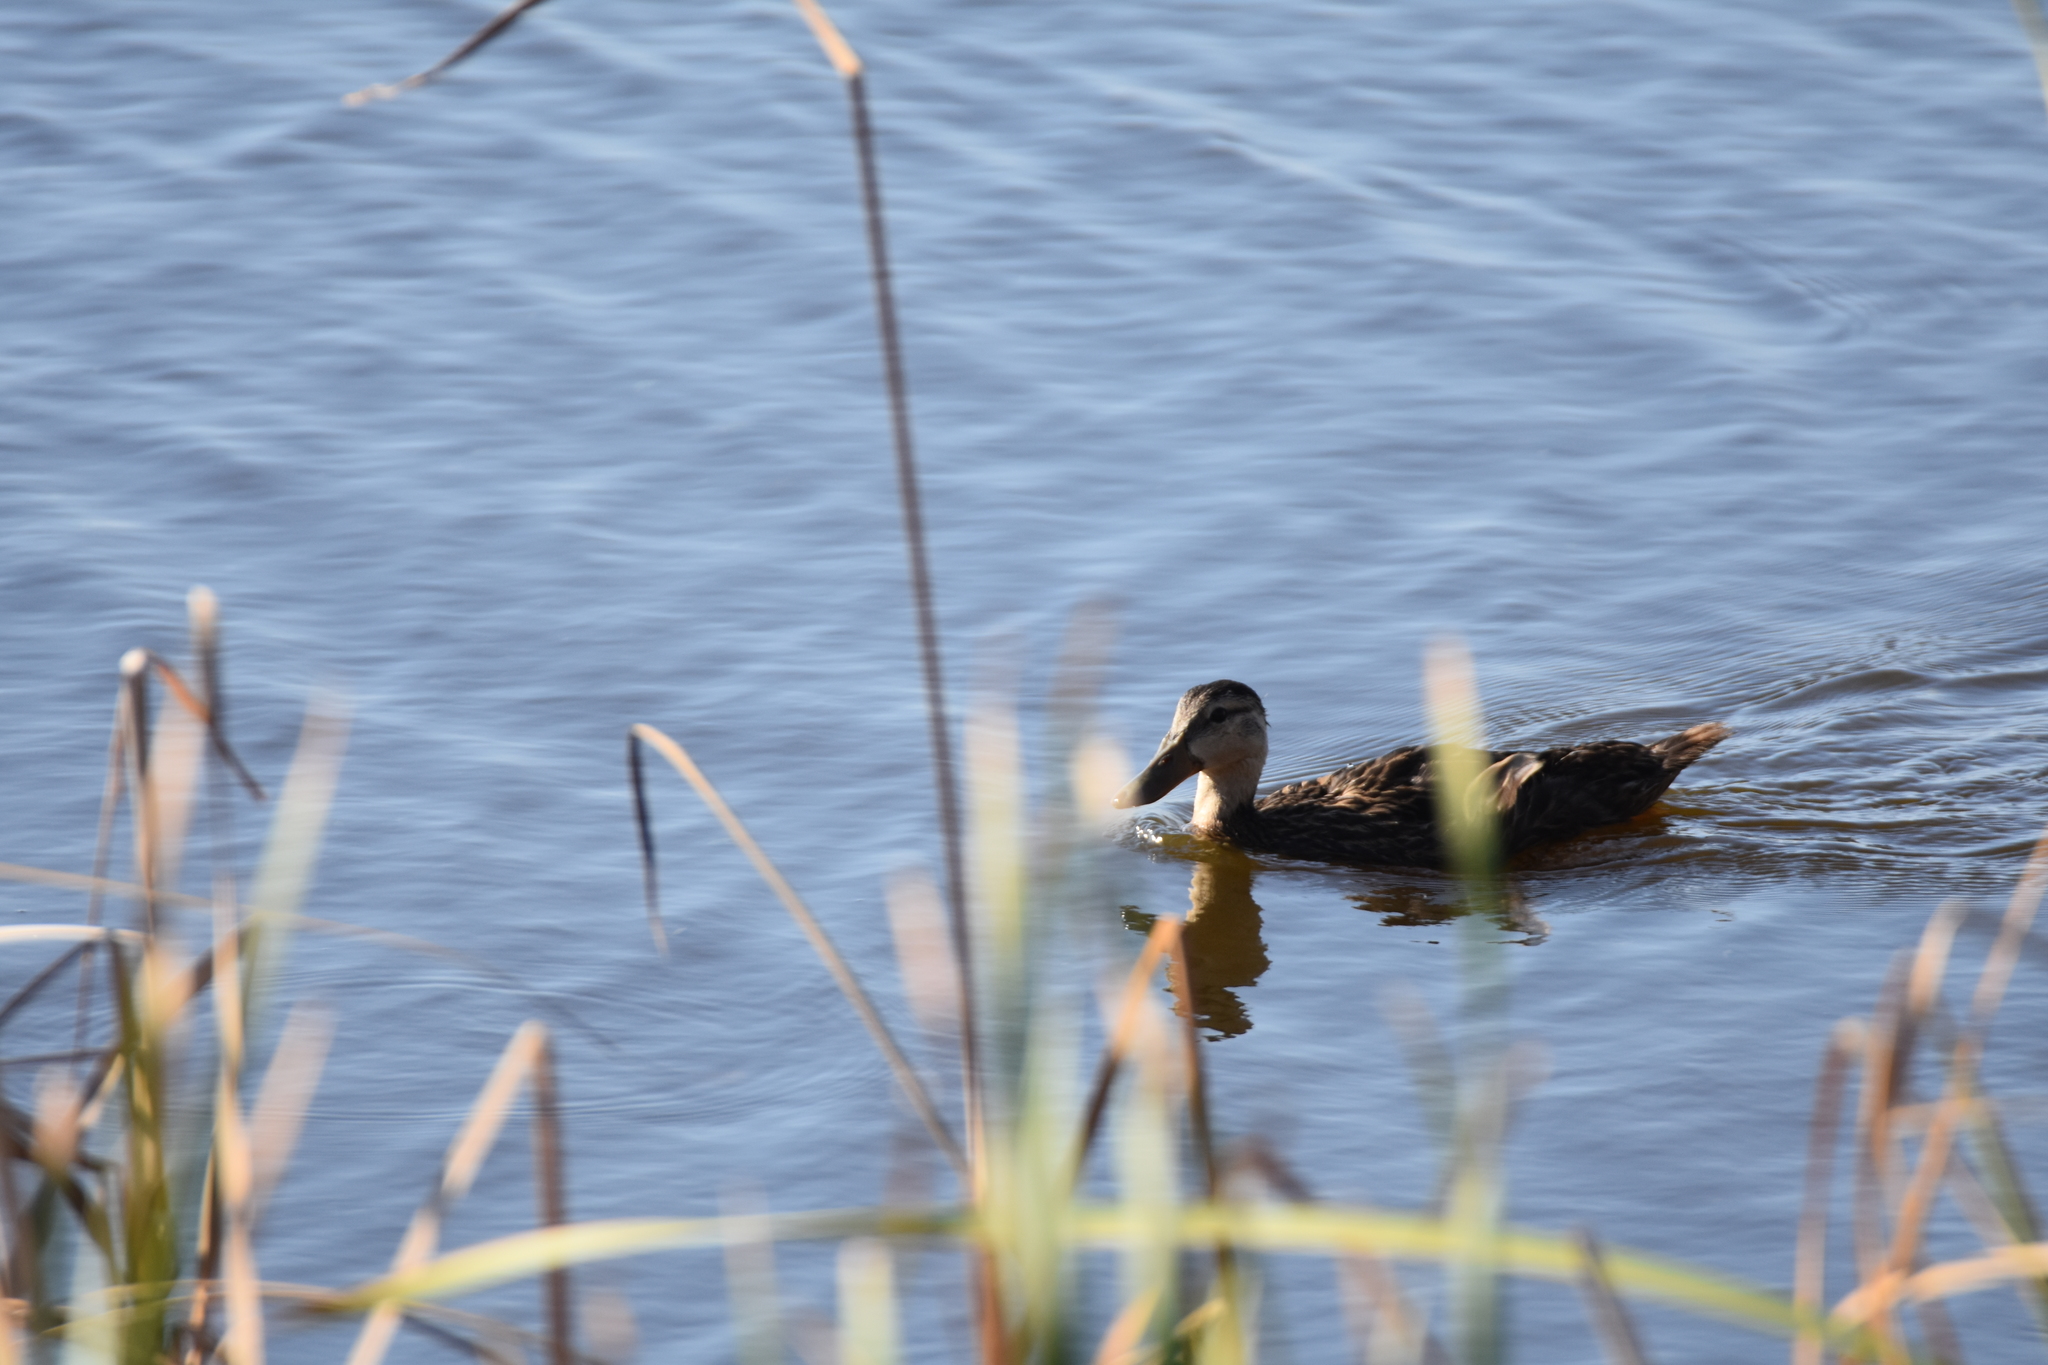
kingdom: Animalia
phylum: Chordata
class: Aves
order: Anseriformes
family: Anatidae
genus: Anas
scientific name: Anas fulvigula
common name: Mottled duck
